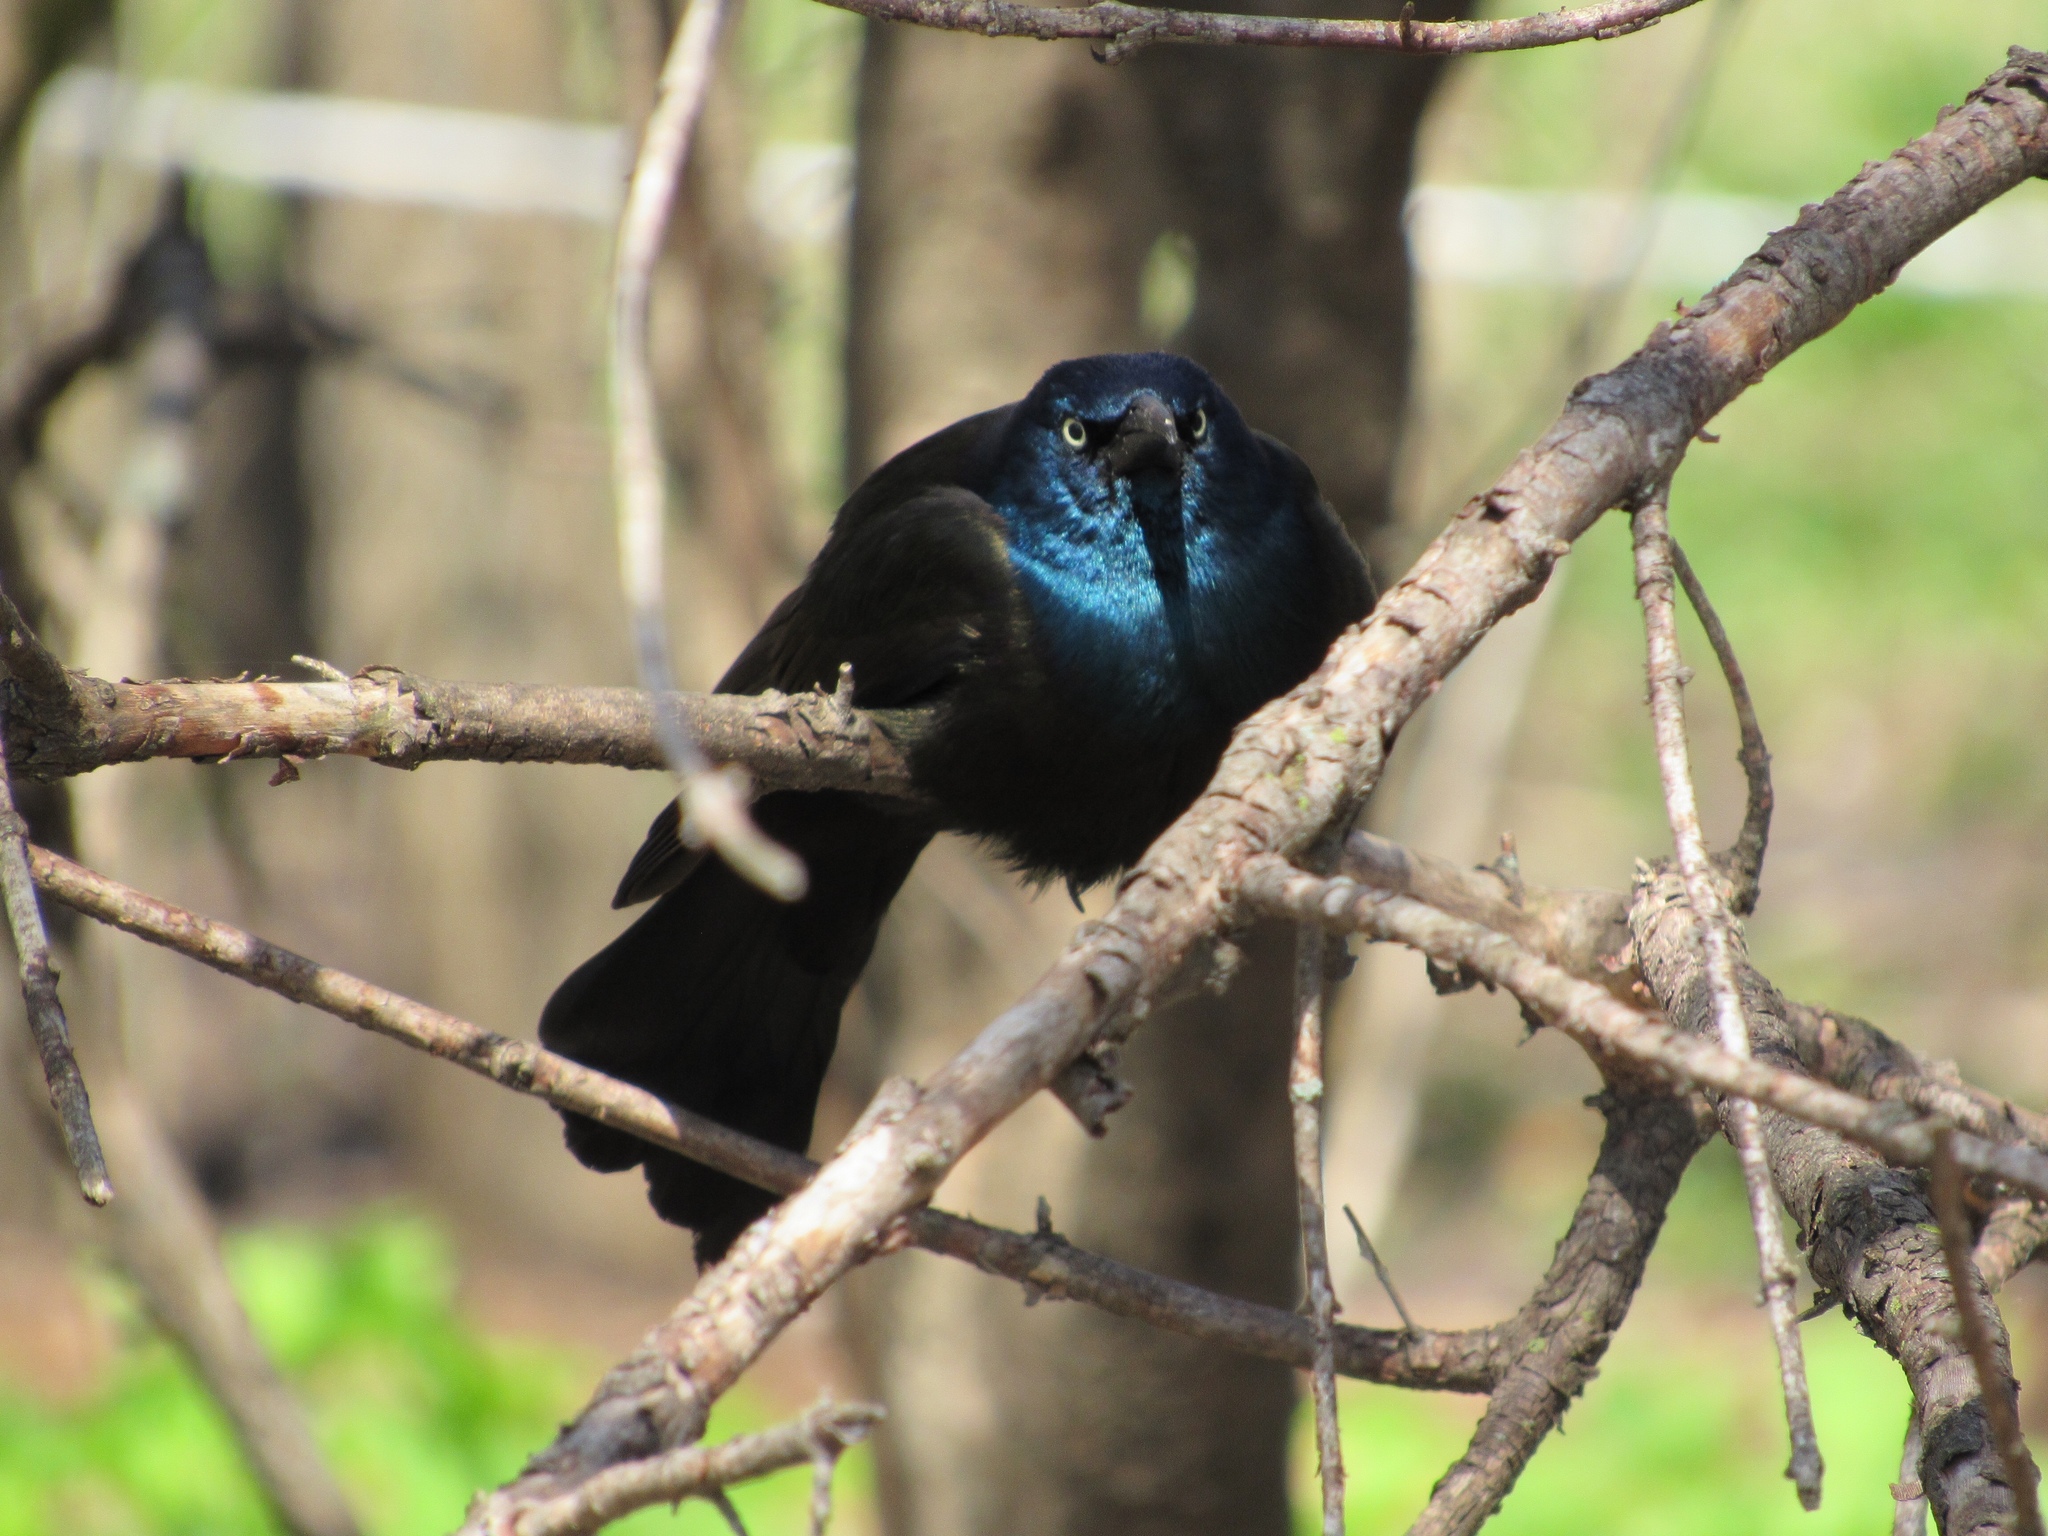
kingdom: Animalia
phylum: Chordata
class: Aves
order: Passeriformes
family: Icteridae
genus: Quiscalus
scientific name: Quiscalus quiscula
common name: Common grackle
